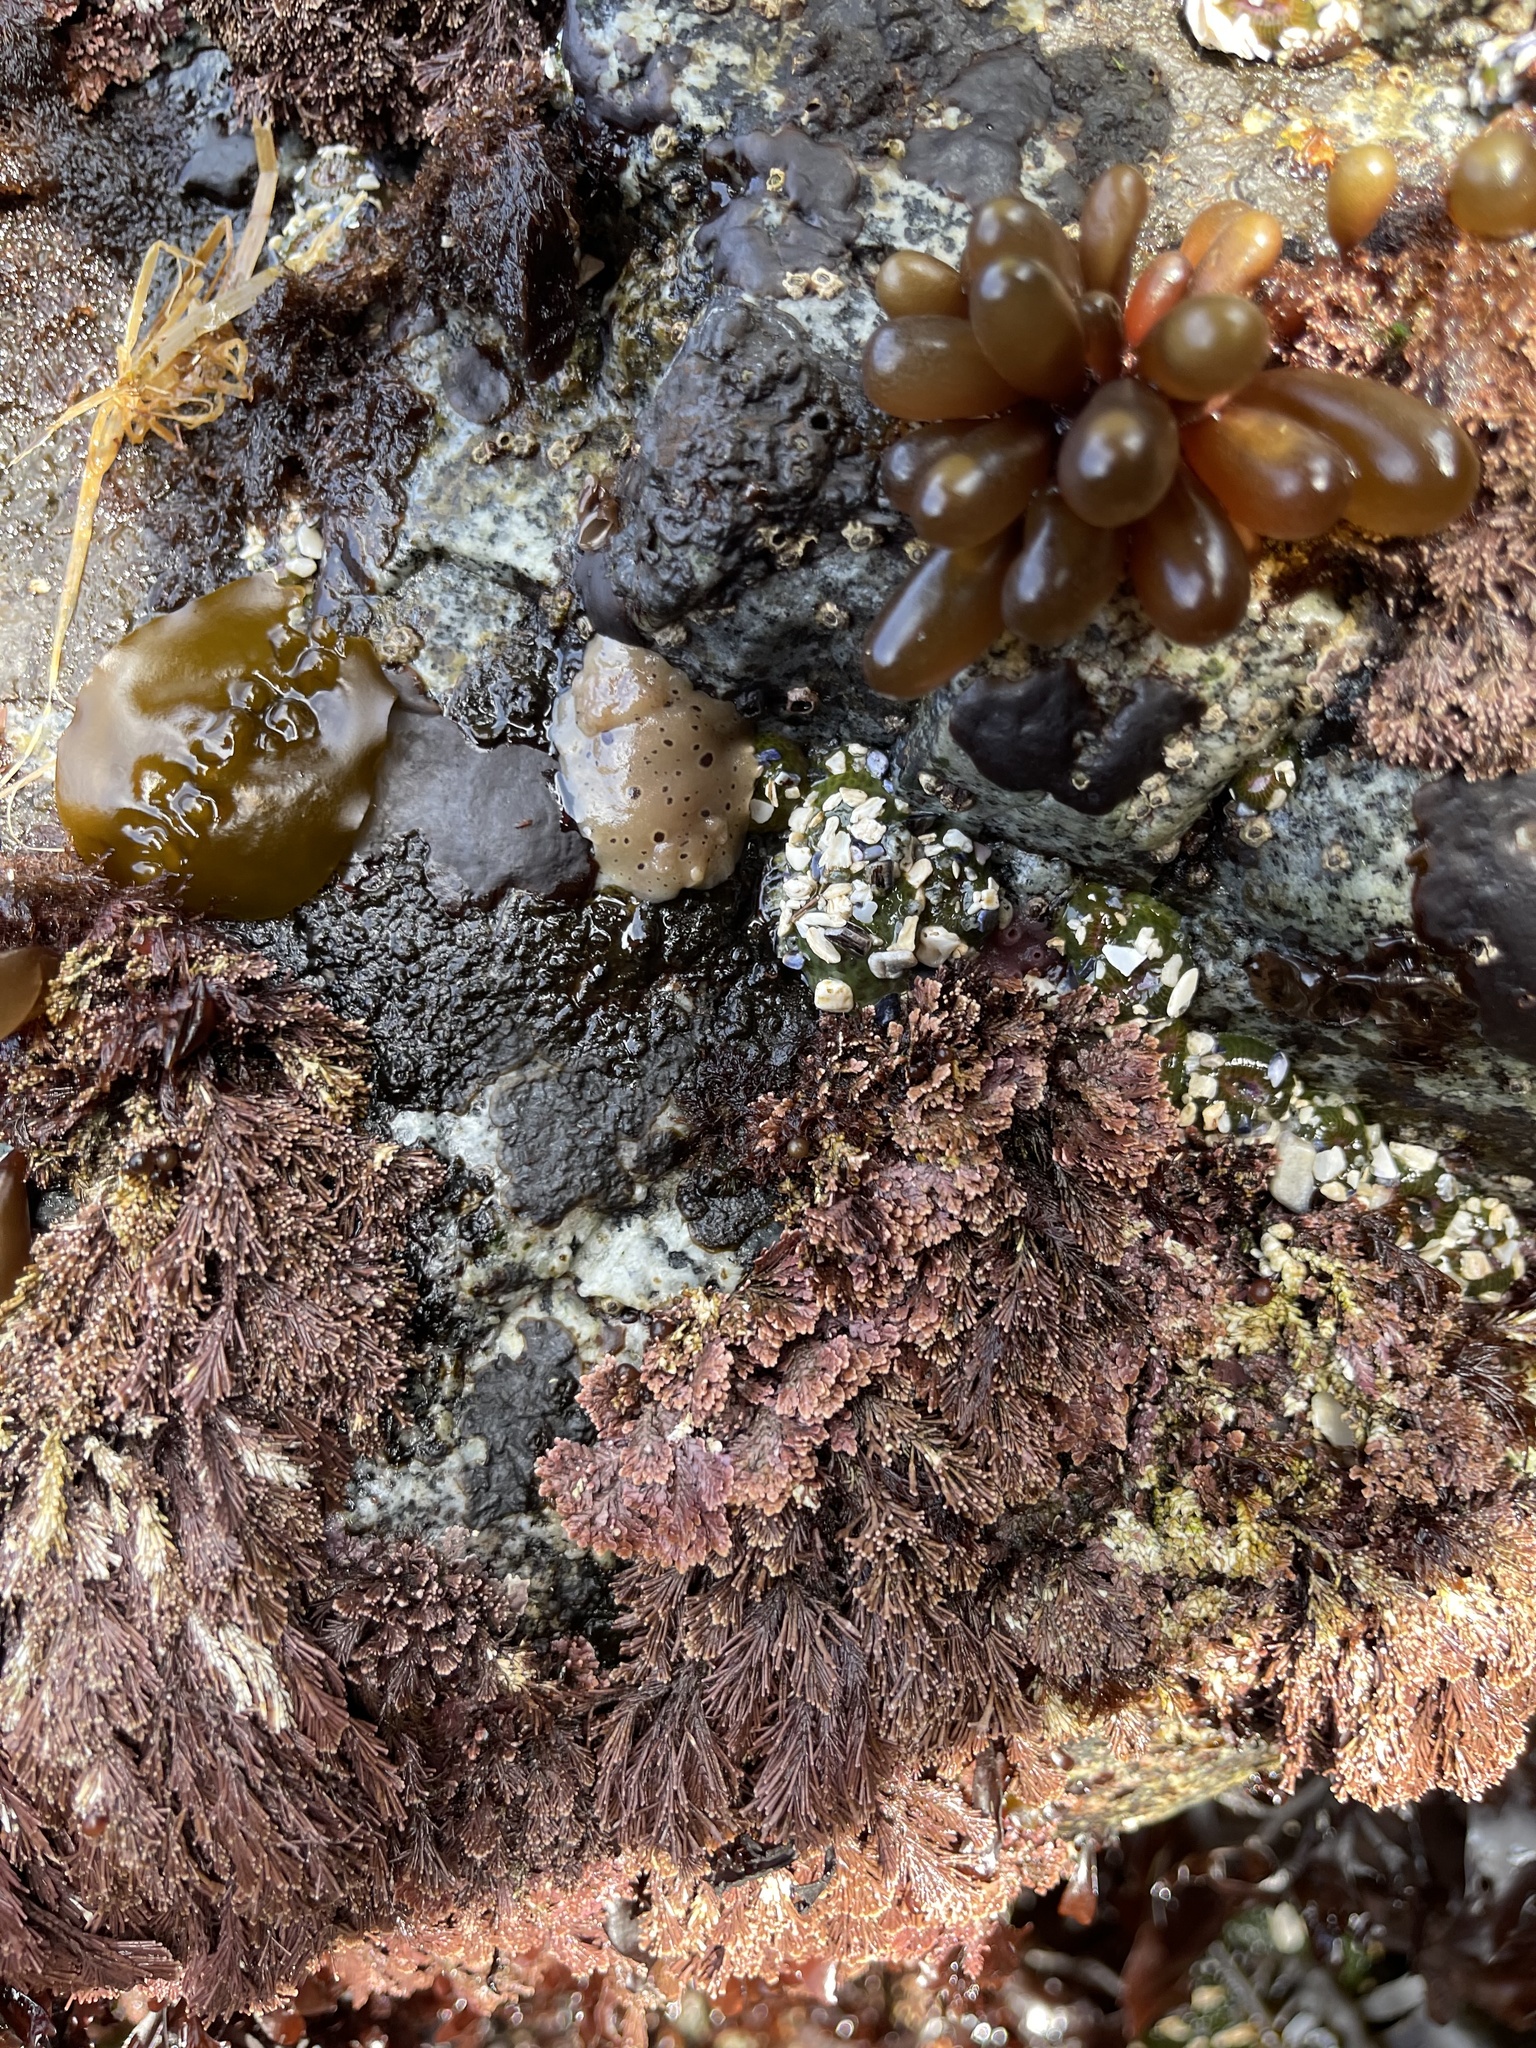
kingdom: Animalia
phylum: Mollusca
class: Gastropoda
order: Nudibranchia
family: Discodorididae
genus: Diaulula
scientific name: Diaulula odonoghuei
